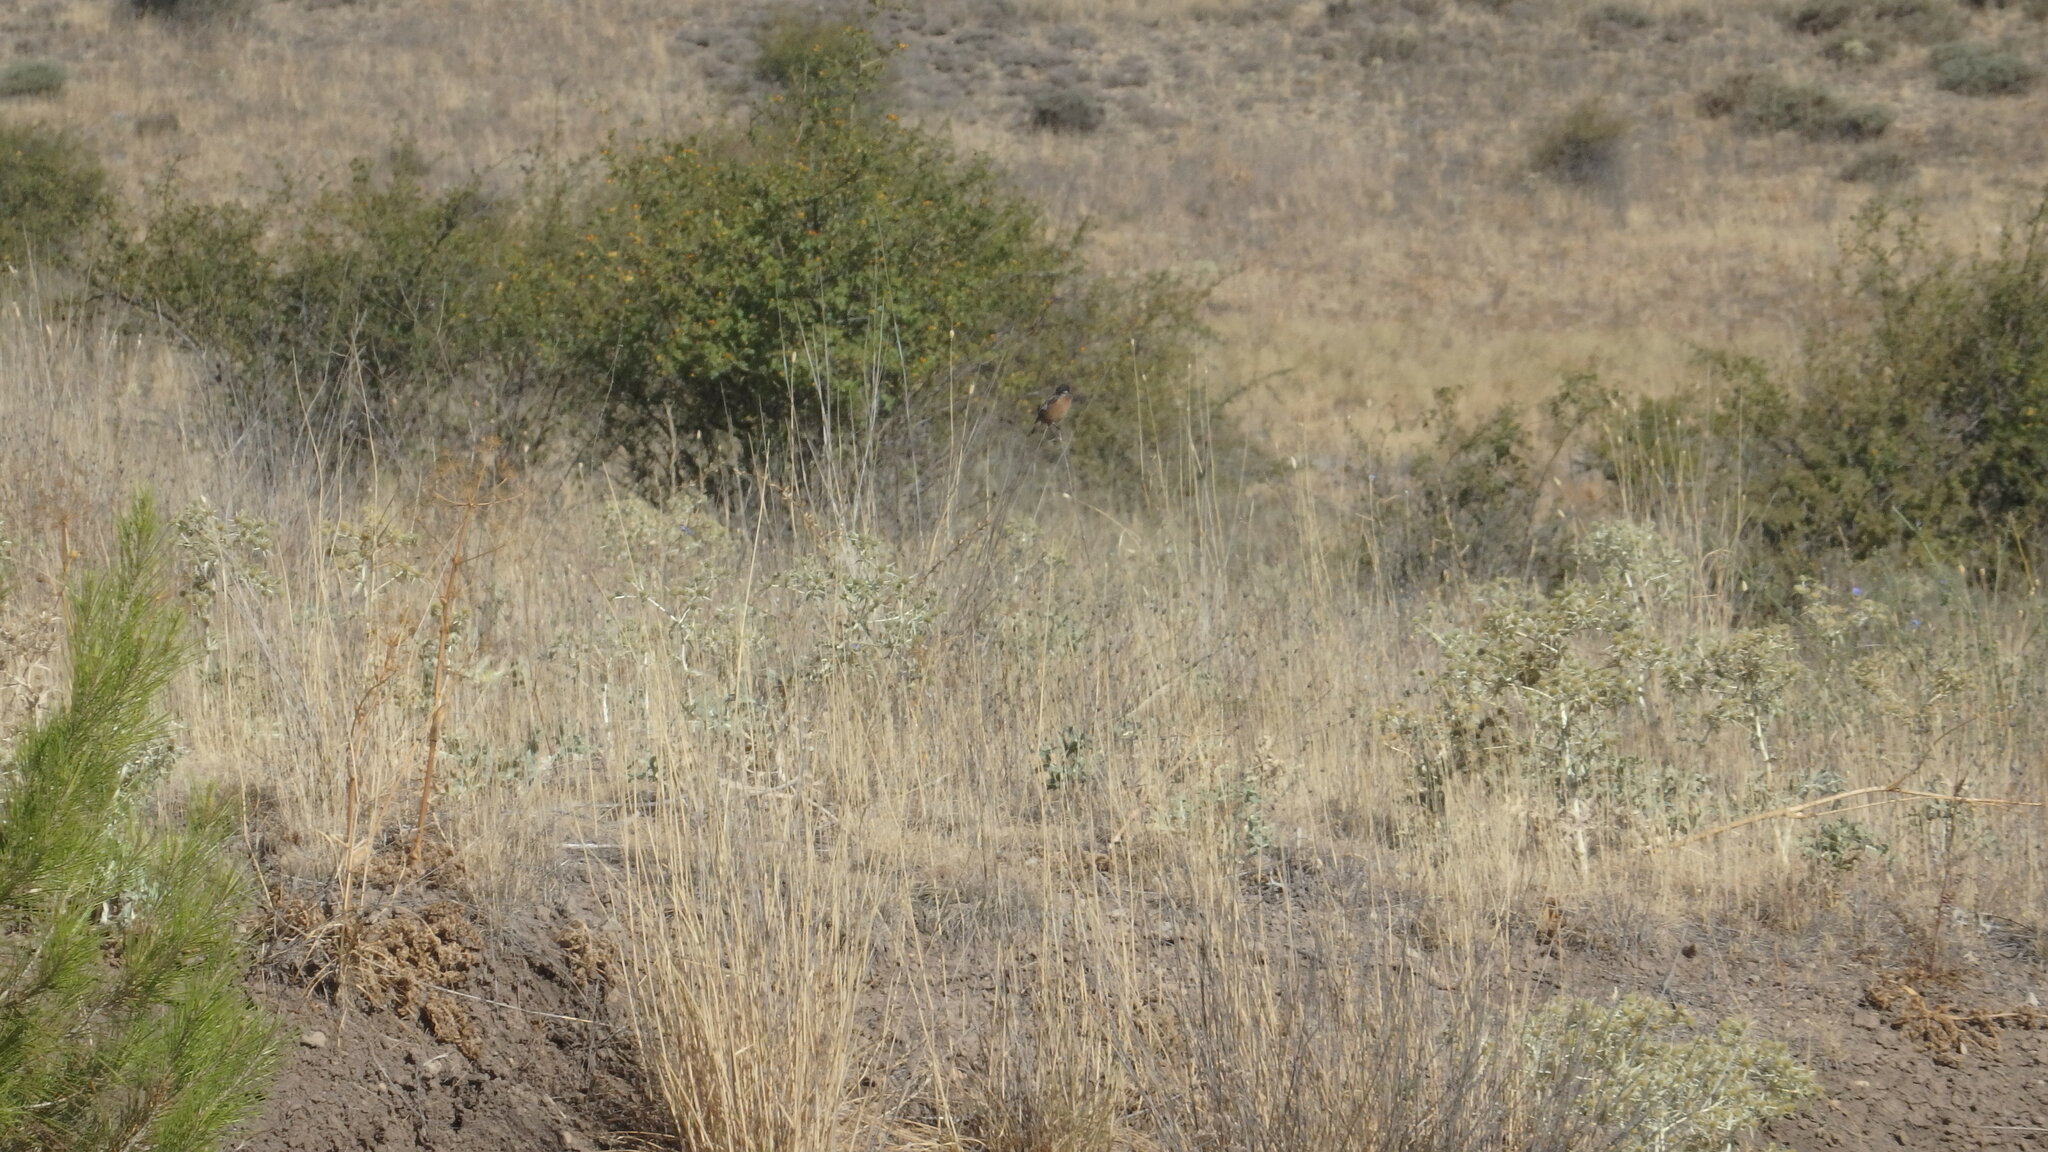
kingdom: Animalia
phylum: Chordata
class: Aves
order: Passeriformes
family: Muscicapidae
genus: Saxicola
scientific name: Saxicola rubicola
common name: European stonechat
